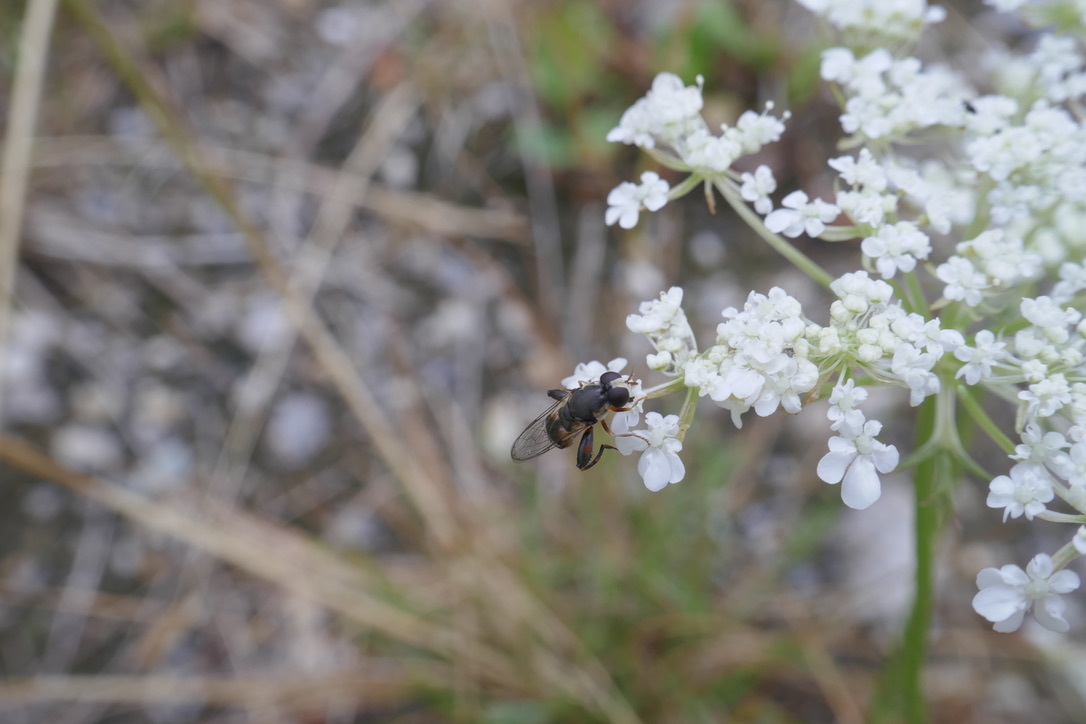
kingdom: Animalia
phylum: Arthropoda
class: Insecta
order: Diptera
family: Syrphidae
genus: Syritta
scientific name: Syritta pipiens
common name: Hover fly
